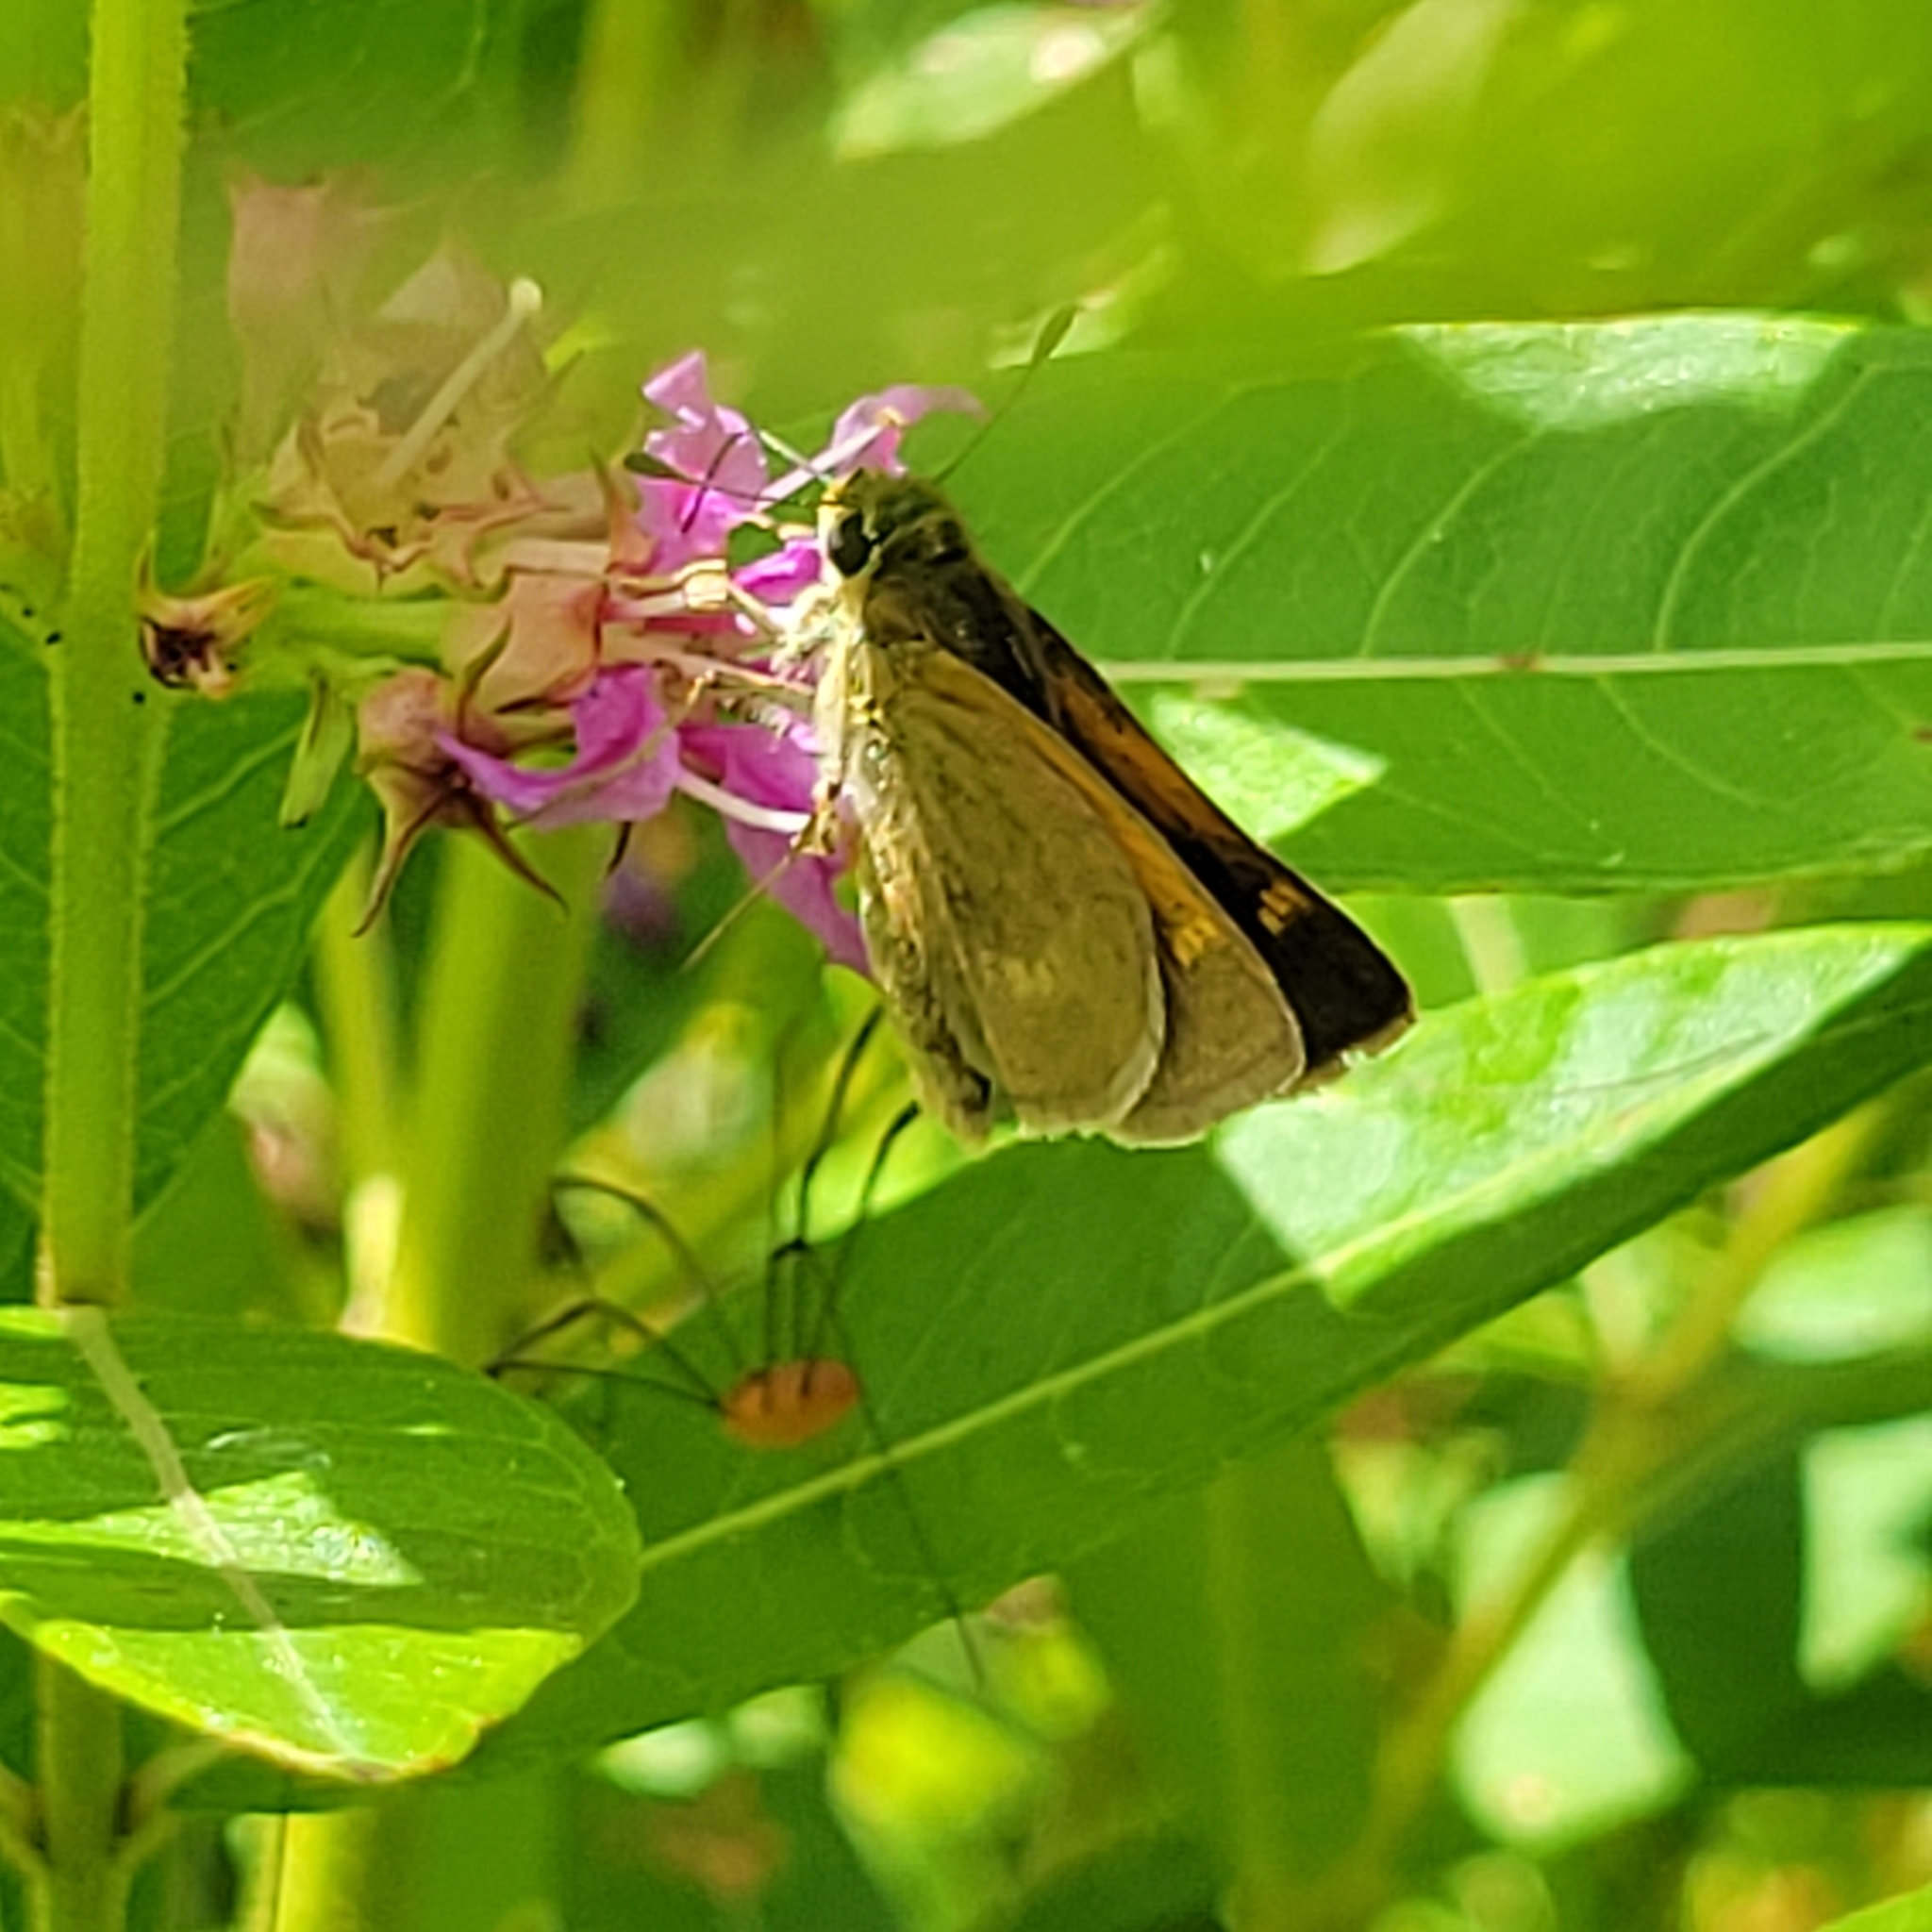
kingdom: Animalia
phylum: Arthropoda
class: Insecta
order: Lepidoptera
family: Hesperiidae
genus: Polites
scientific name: Polites themistocles
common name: Tawny-edged skipper
